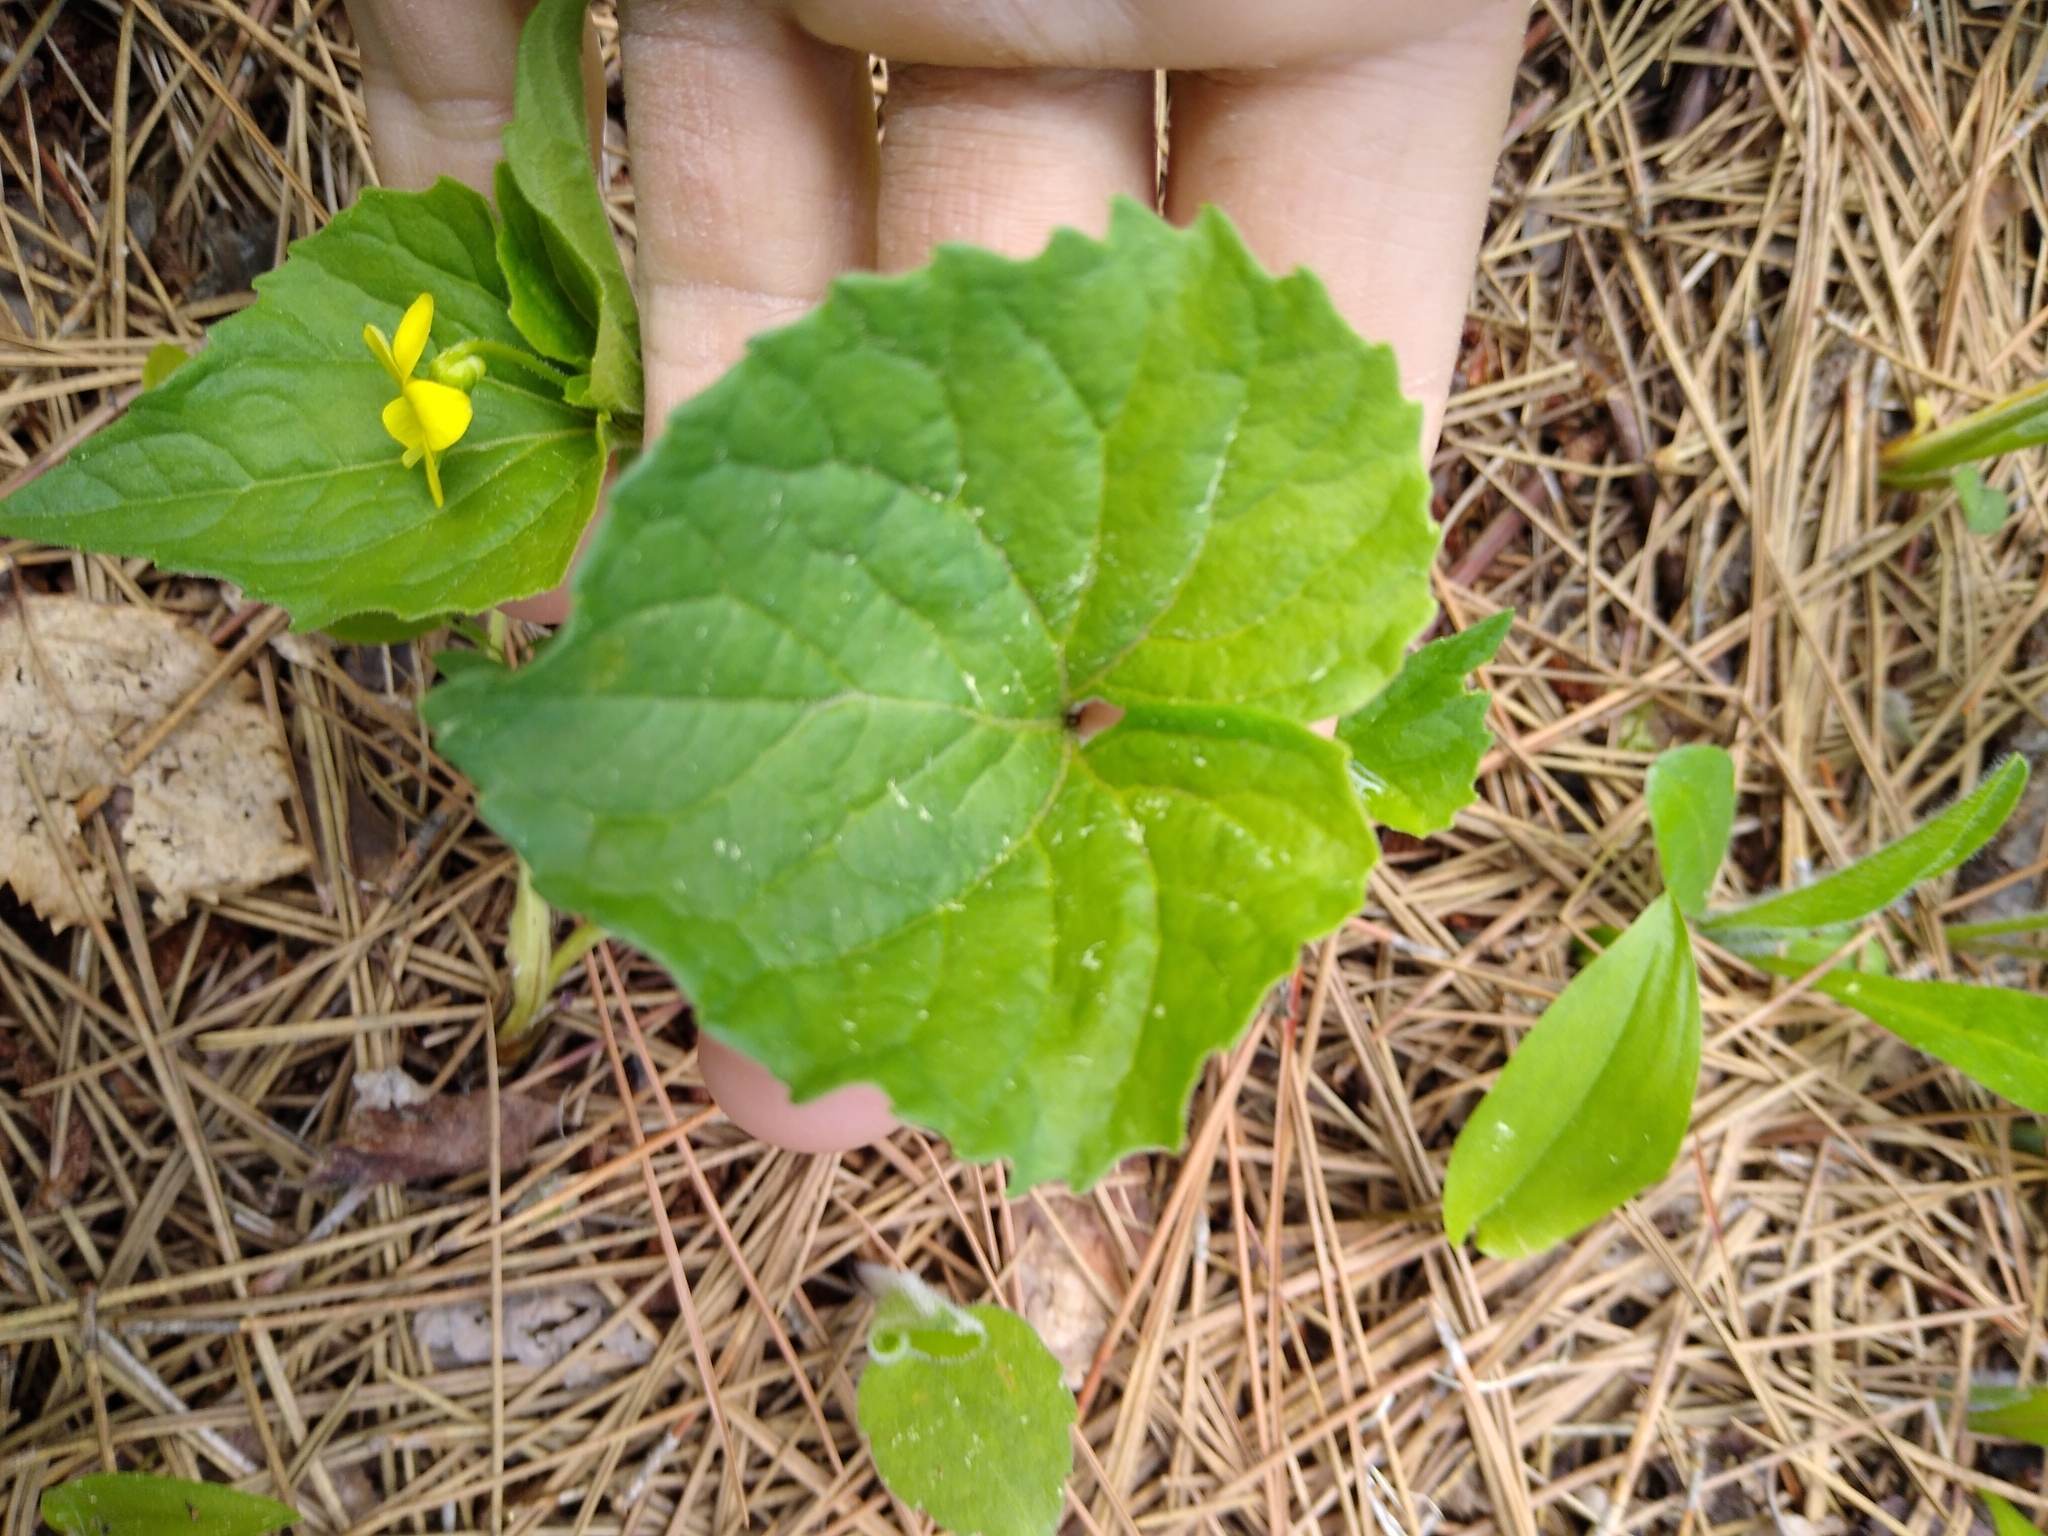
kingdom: Plantae
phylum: Tracheophyta
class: Magnoliopsida
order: Malpighiales
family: Violaceae
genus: Viola
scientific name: Viola eriocarpa
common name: Smooth yellow violet
